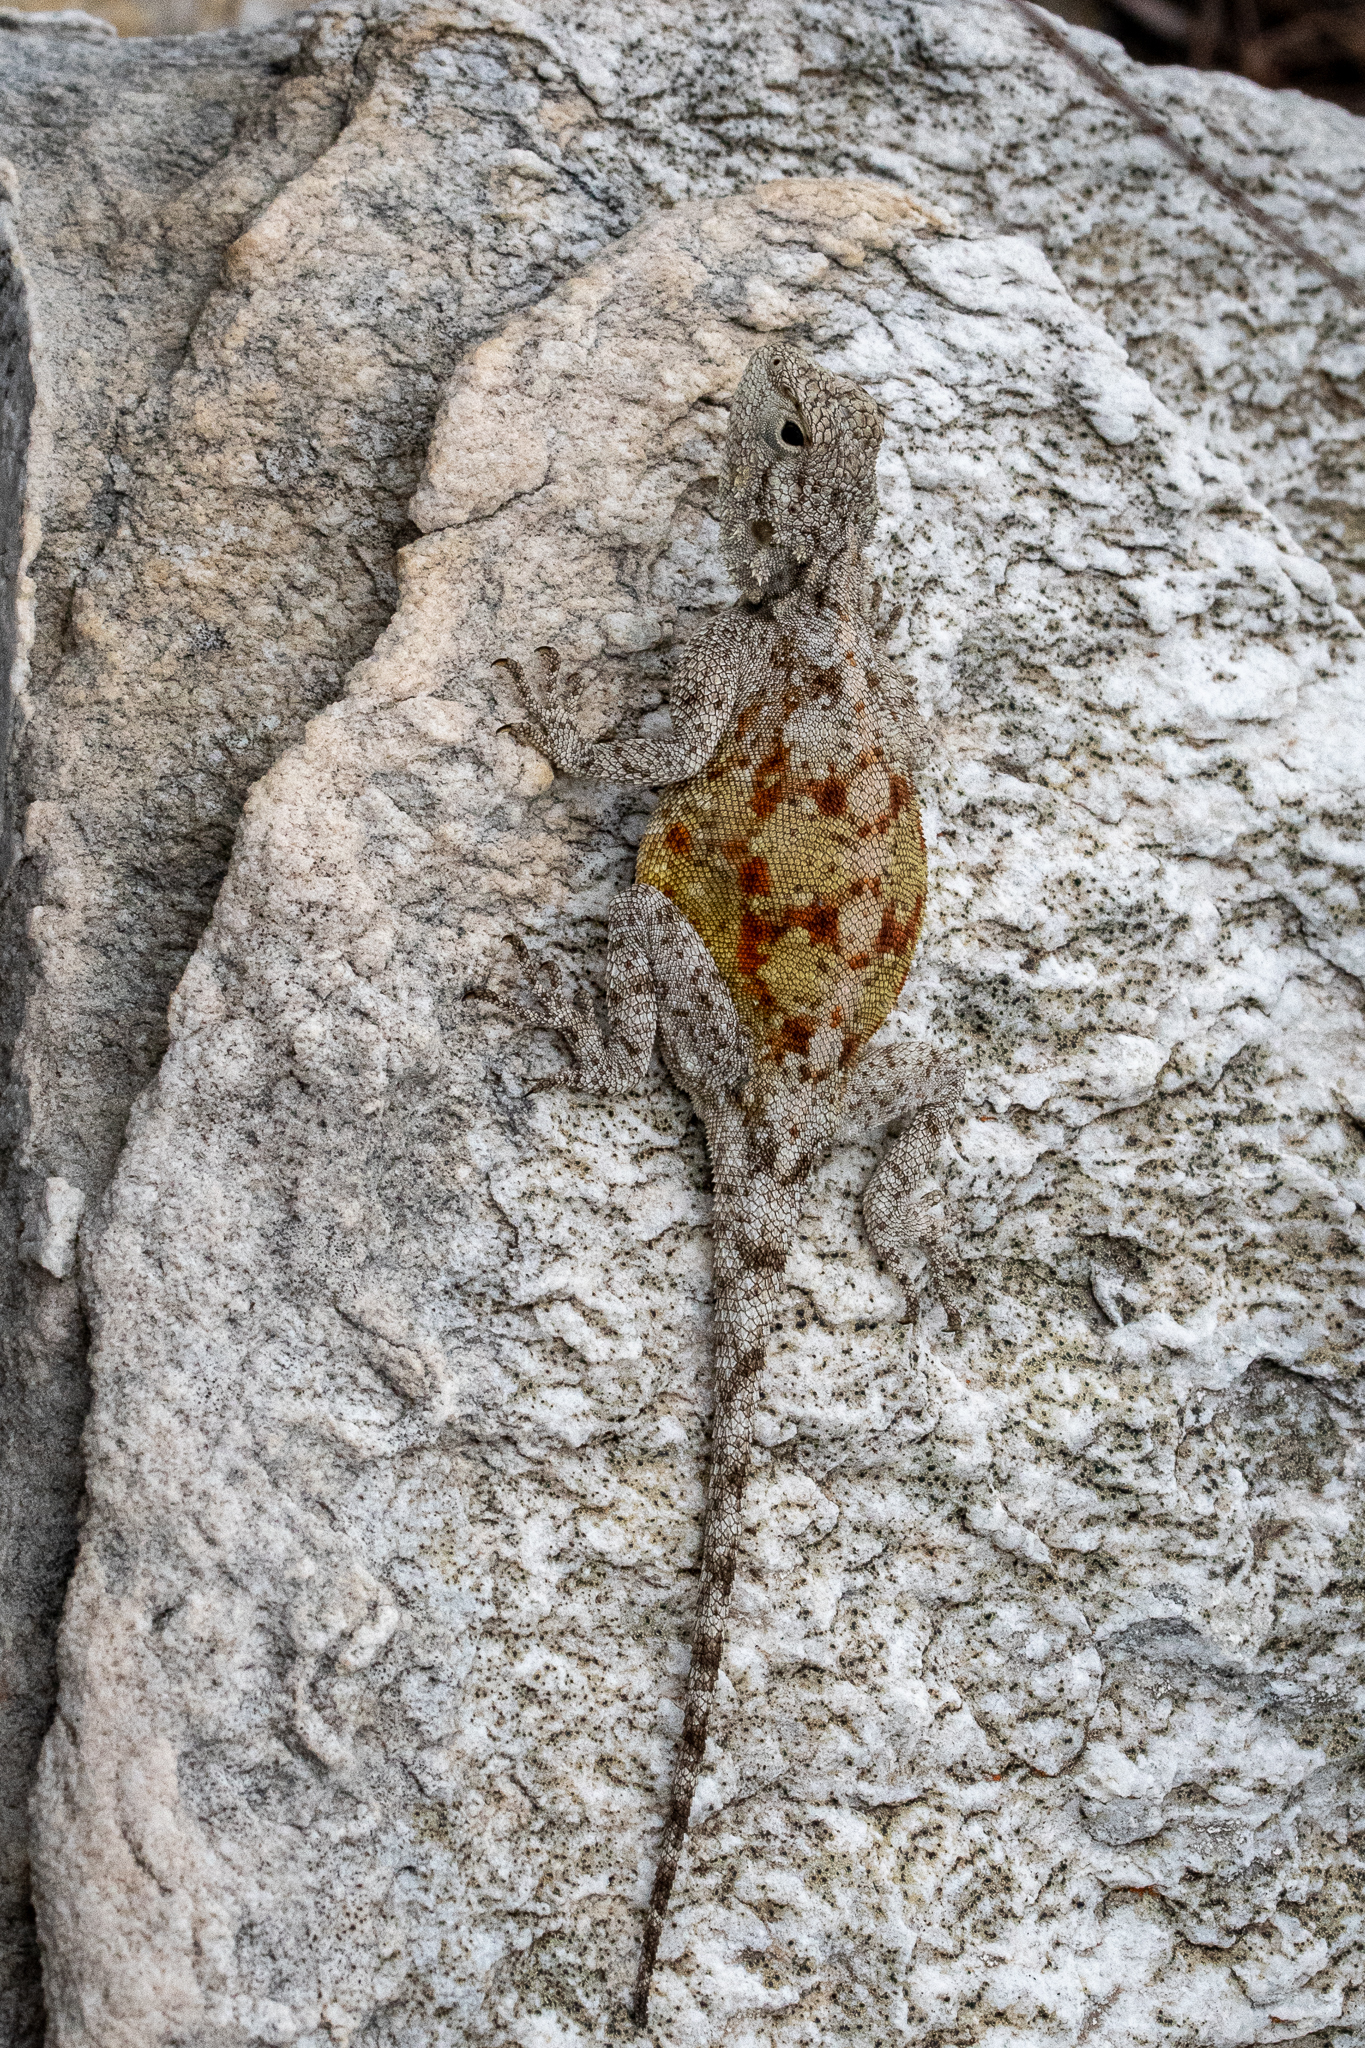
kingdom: Animalia
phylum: Chordata
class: Squamata
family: Agamidae
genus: Agama
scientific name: Agama atra
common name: Southern african rock agama
